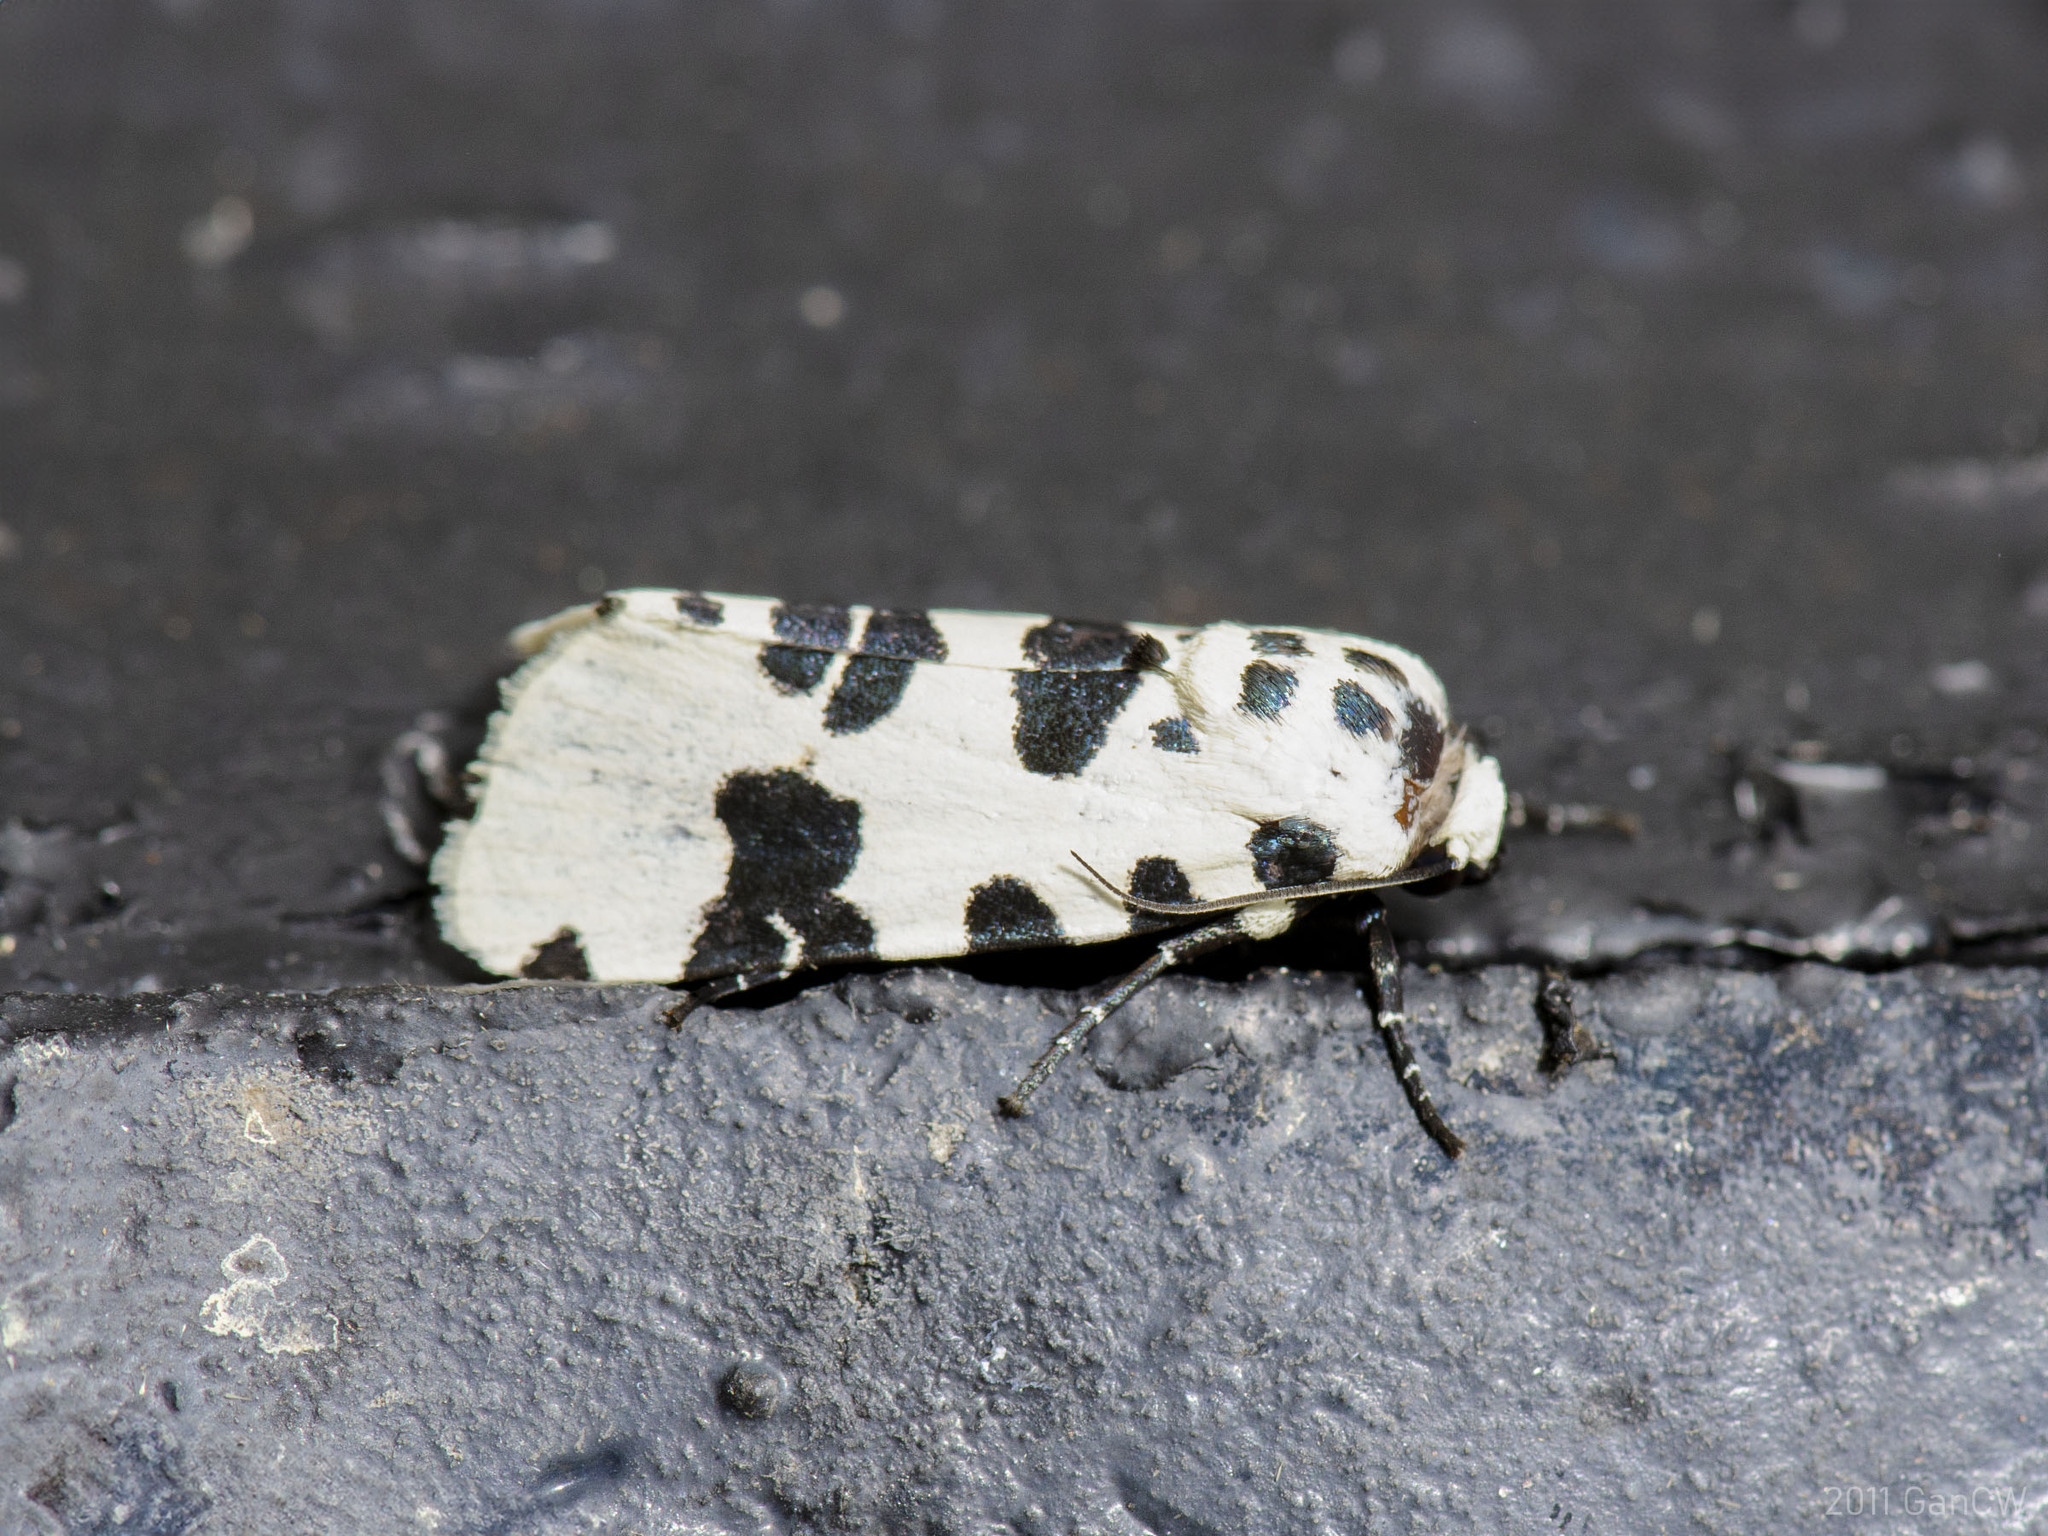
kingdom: Animalia
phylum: Arthropoda
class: Insecta
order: Lepidoptera
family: Noctuidae
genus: Clethrorasa
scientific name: Clethrorasa pilcheri
